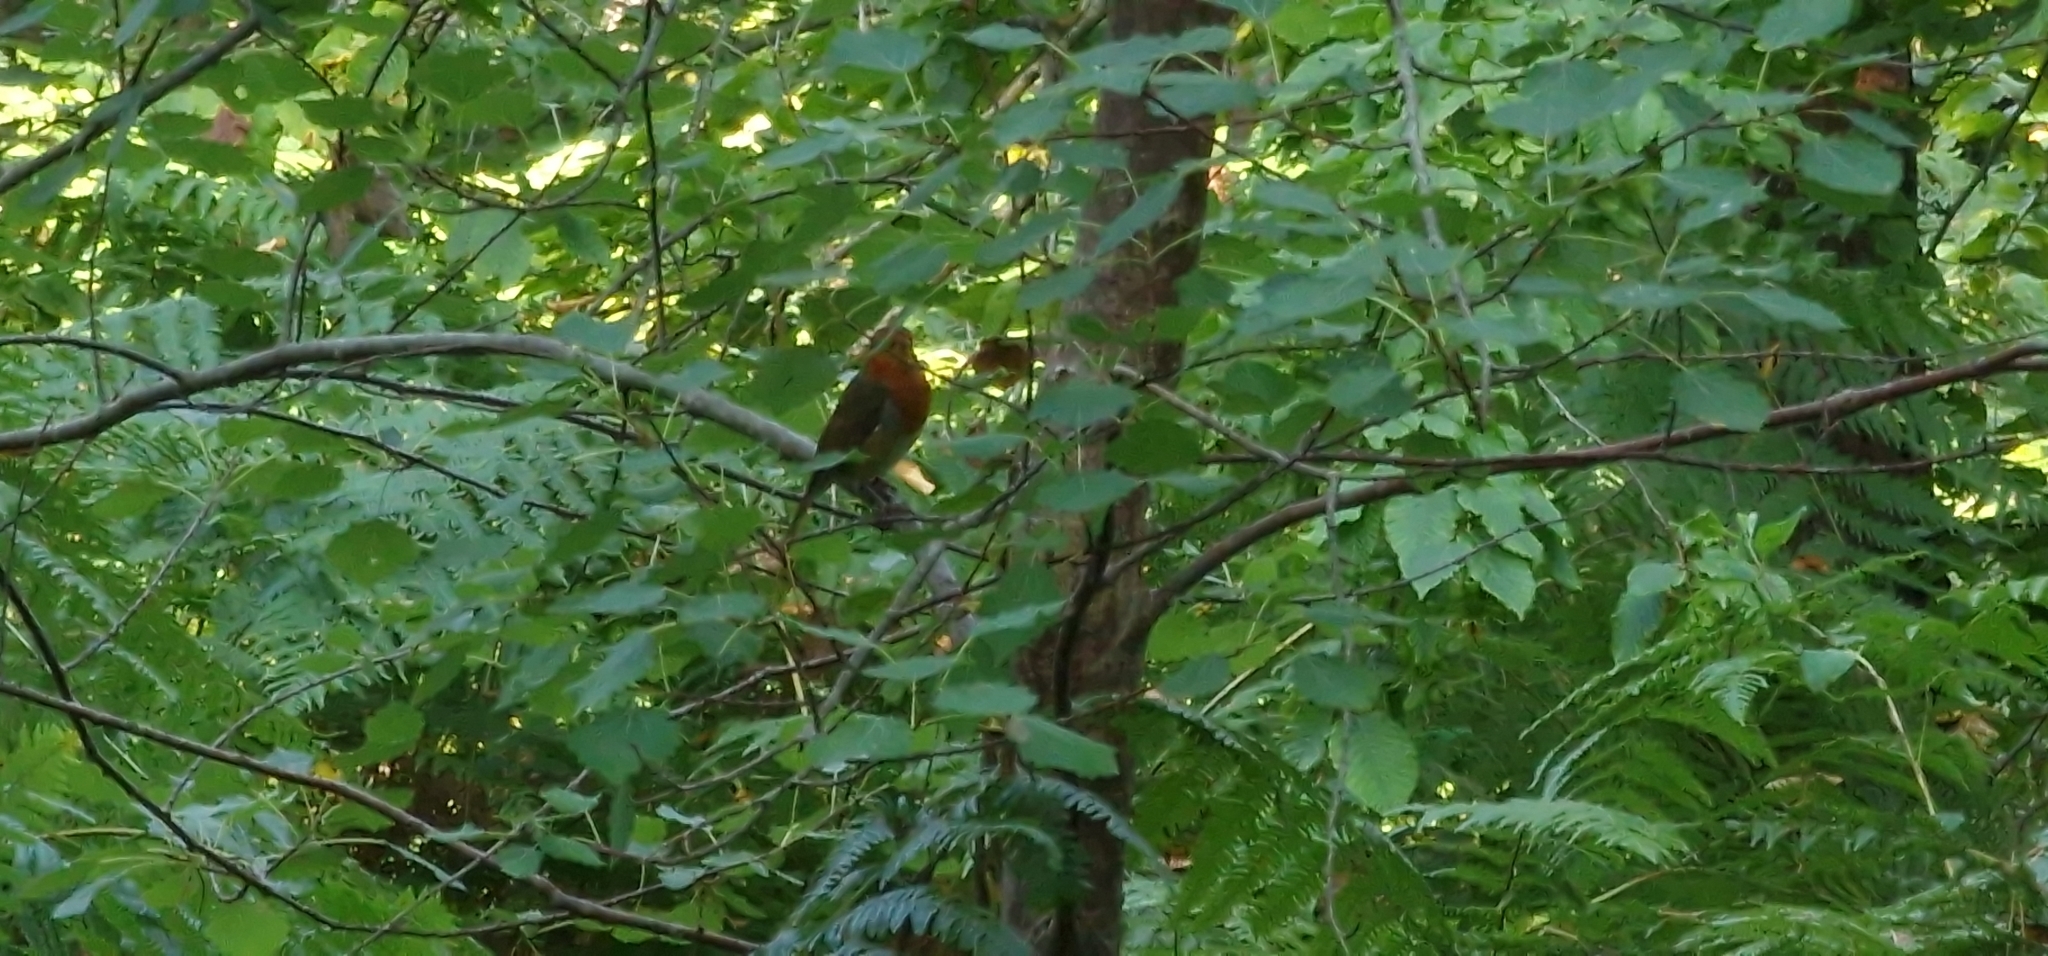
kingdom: Animalia
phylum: Chordata
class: Aves
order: Passeriformes
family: Muscicapidae
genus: Erithacus
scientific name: Erithacus rubecula
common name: European robin
